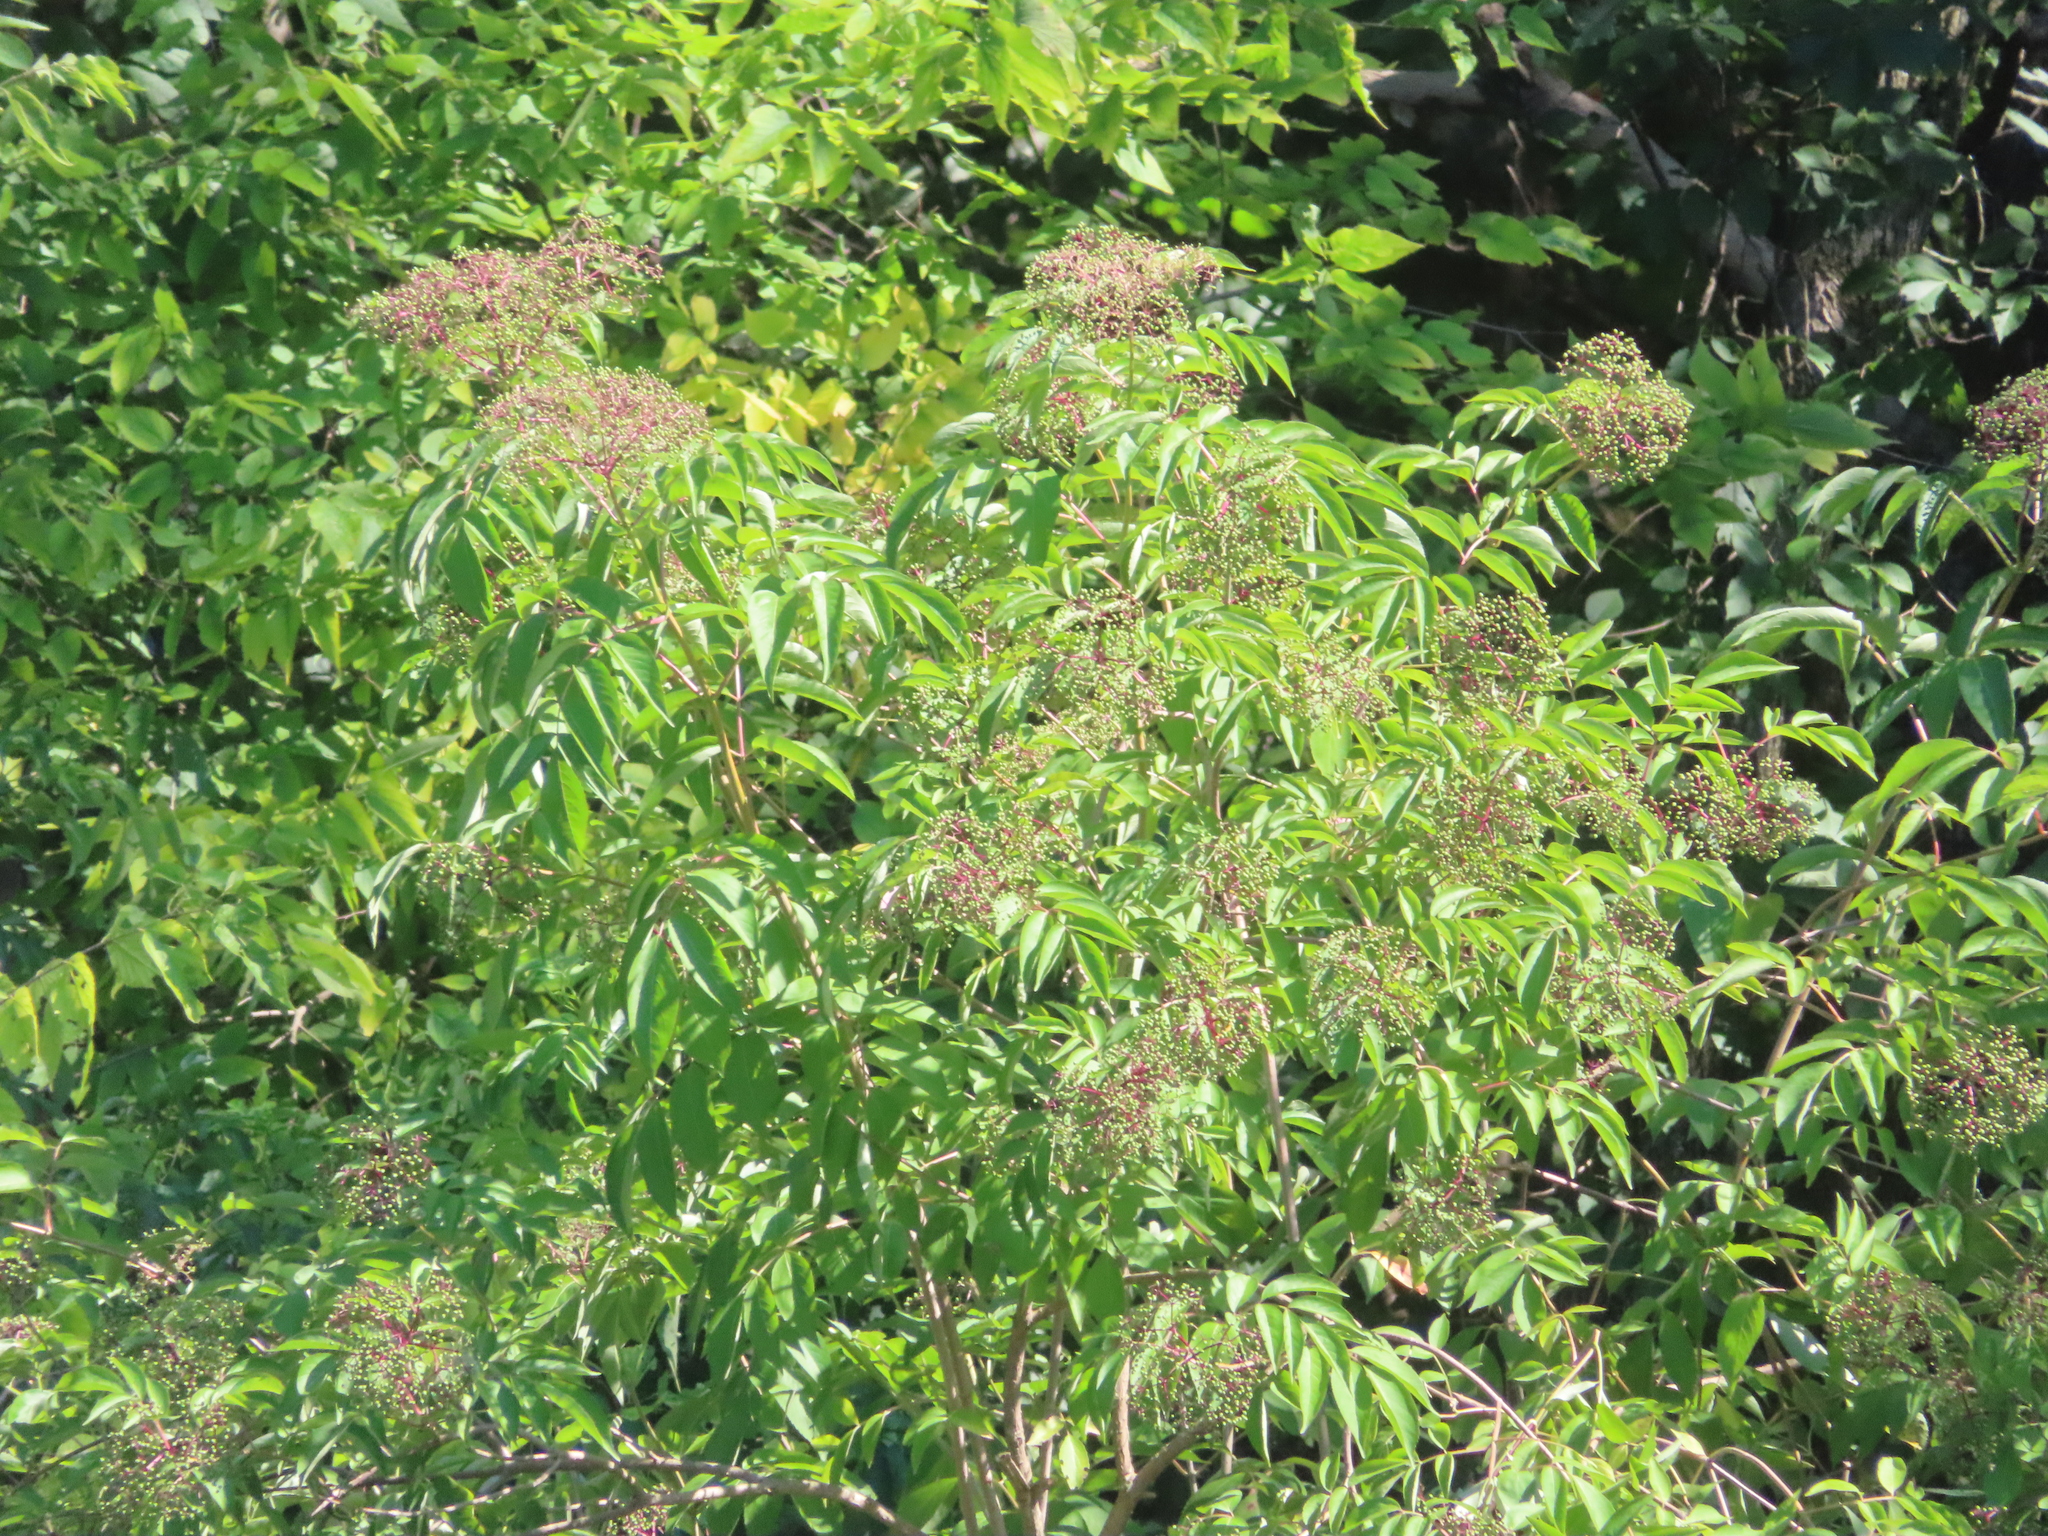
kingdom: Plantae
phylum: Tracheophyta
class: Magnoliopsida
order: Dipsacales
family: Viburnaceae
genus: Sambucus
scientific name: Sambucus canadensis
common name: American elder
